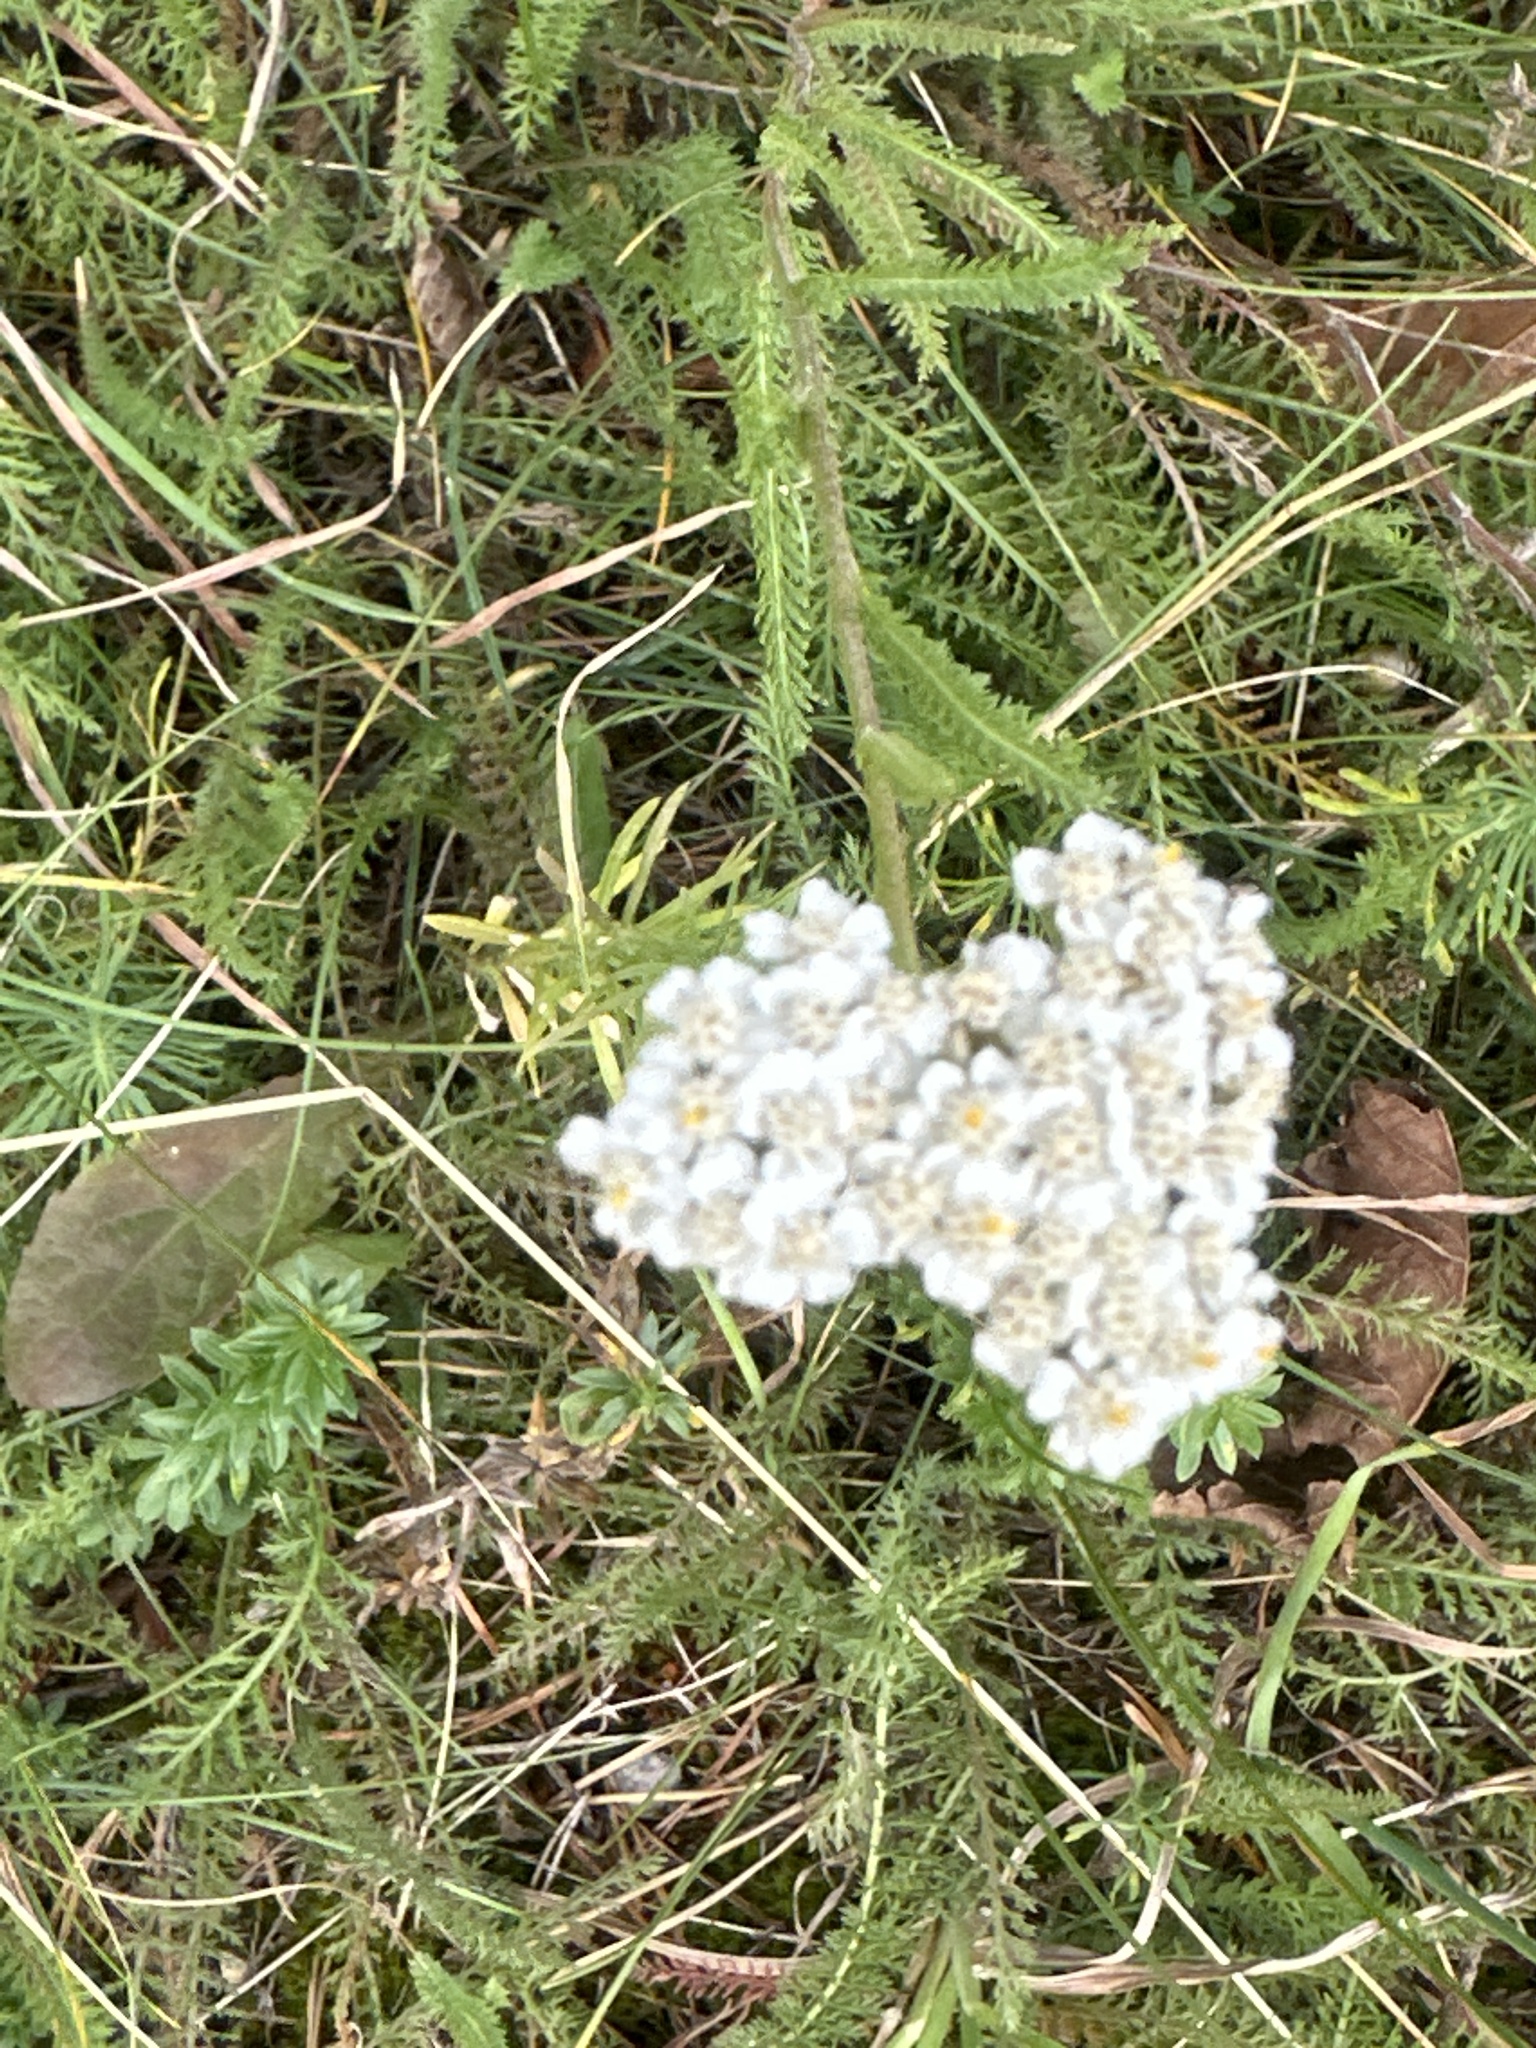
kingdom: Plantae
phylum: Tracheophyta
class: Magnoliopsida
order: Asterales
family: Asteraceae
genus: Achillea
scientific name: Achillea millefolium
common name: Yarrow
